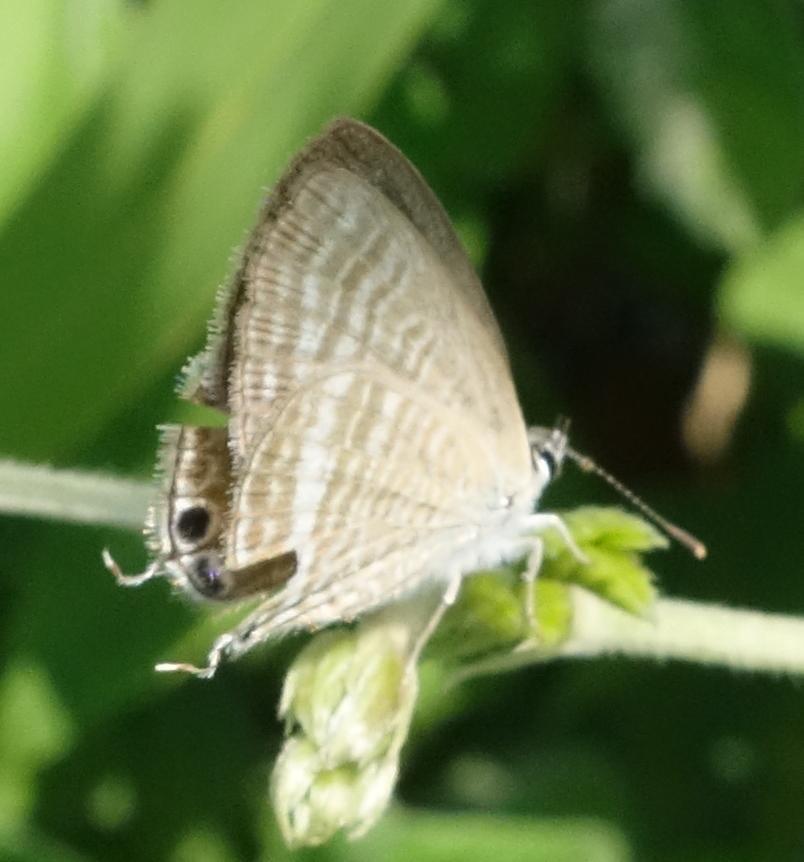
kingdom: Animalia
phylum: Arthropoda
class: Insecta
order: Lepidoptera
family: Lycaenidae
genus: Lampides
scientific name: Lampides boeticus
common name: Long-tailed blue
